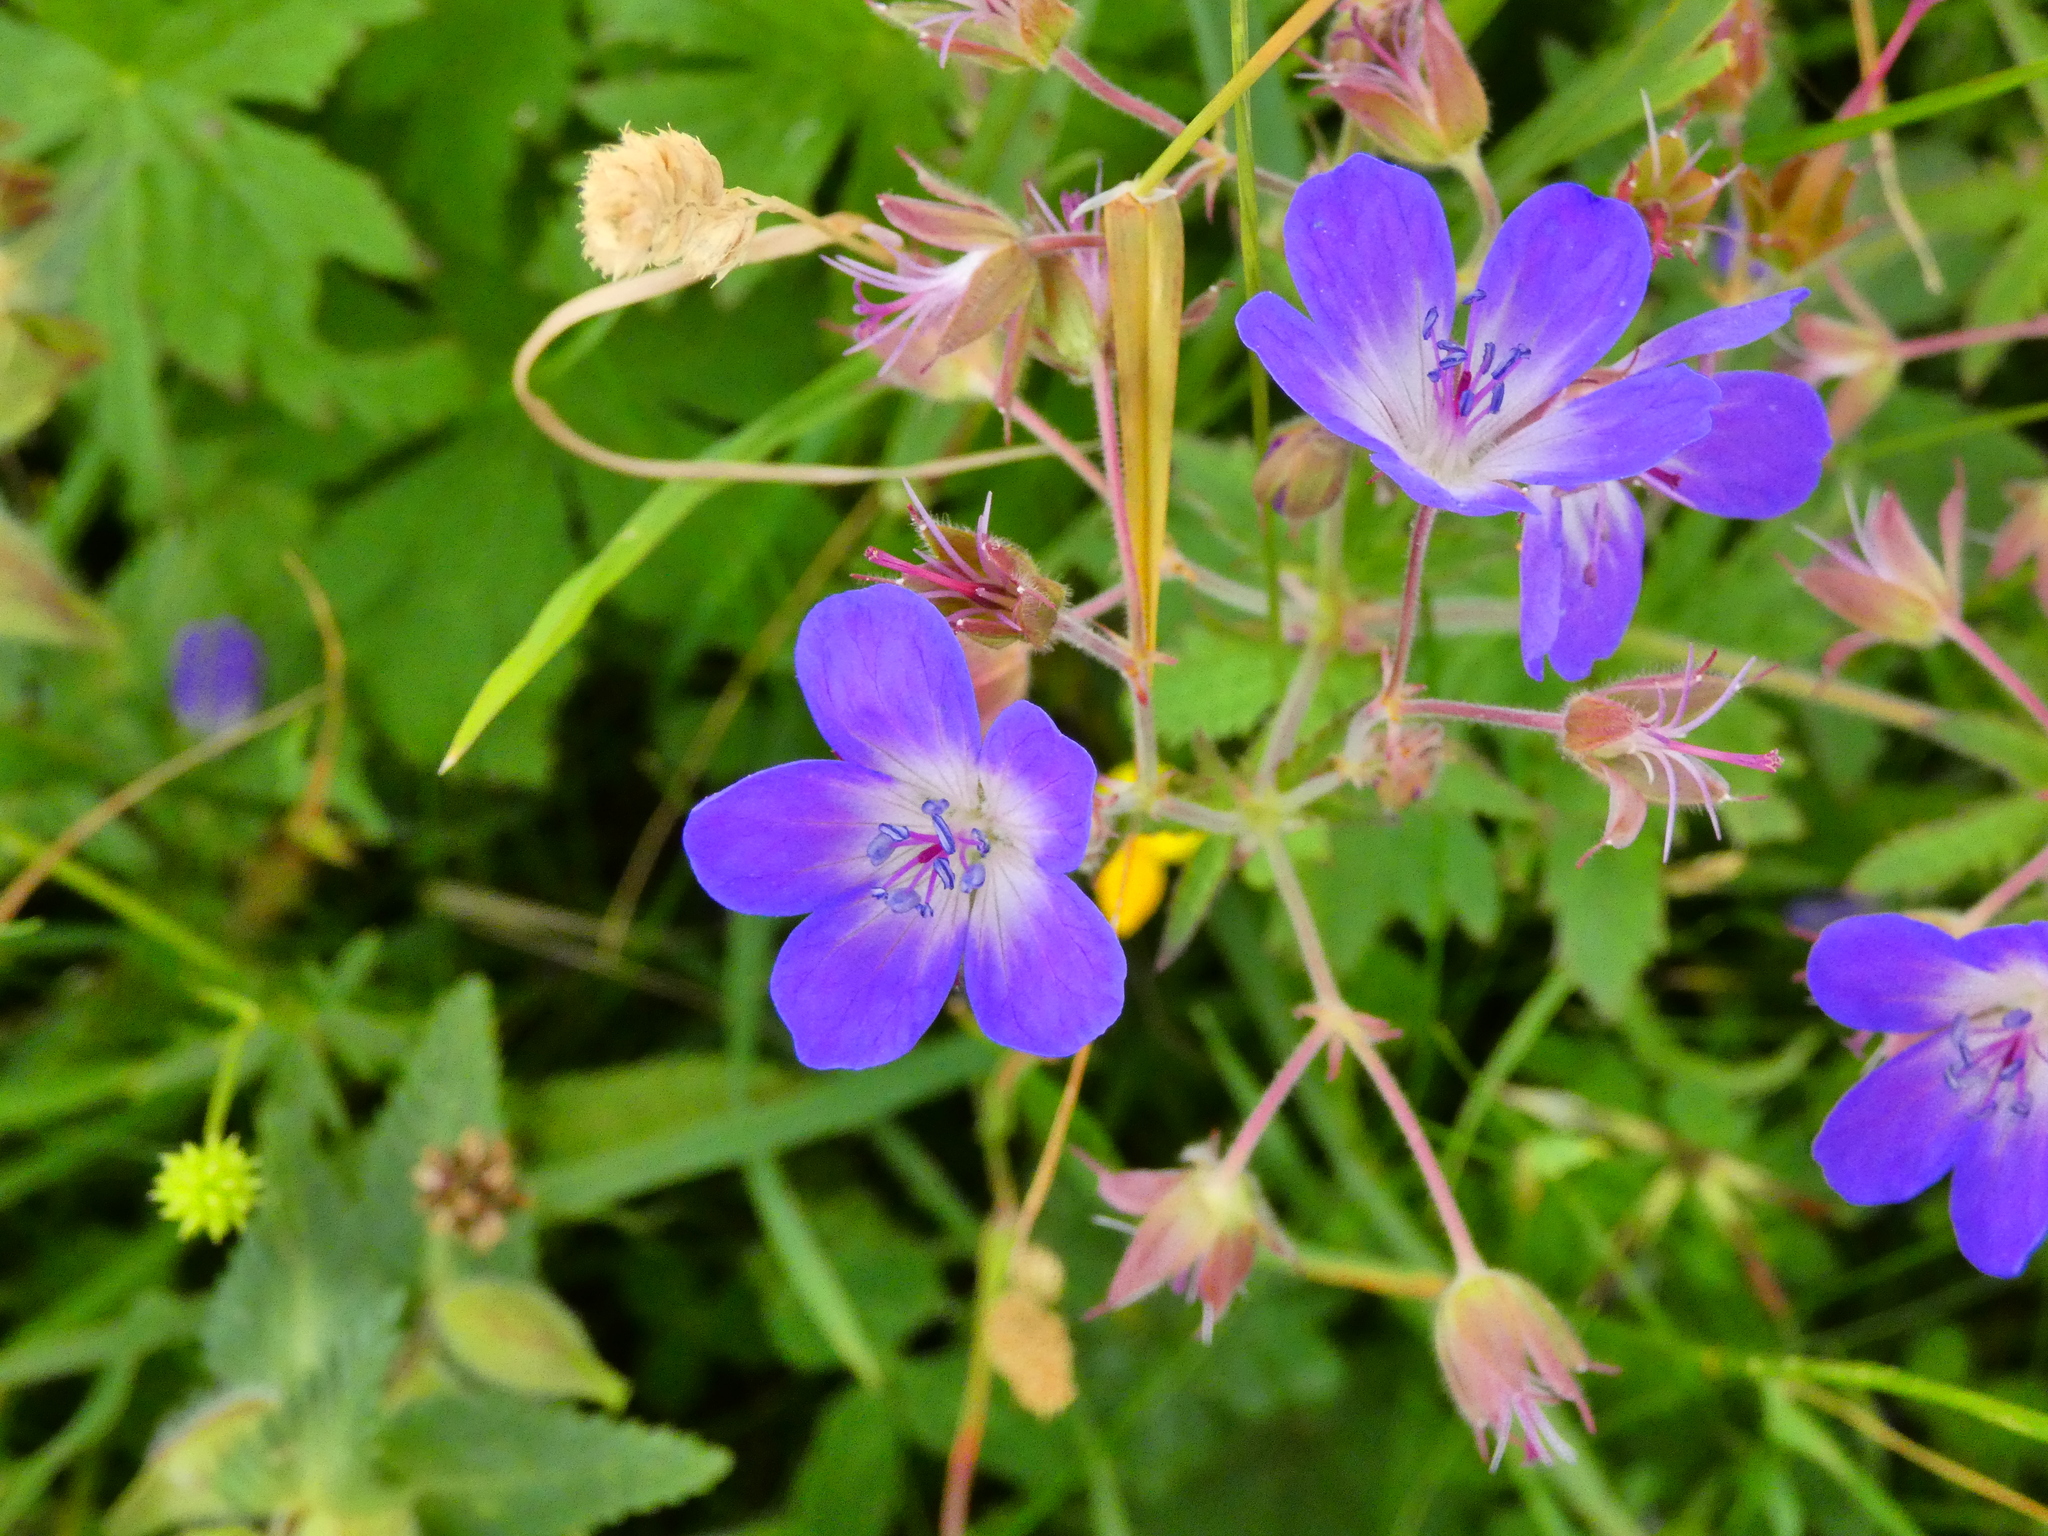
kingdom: Plantae
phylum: Tracheophyta
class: Magnoliopsida
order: Geraniales
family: Geraniaceae
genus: Geranium
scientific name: Geranium sylvaticum
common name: Wood crane's-bill
